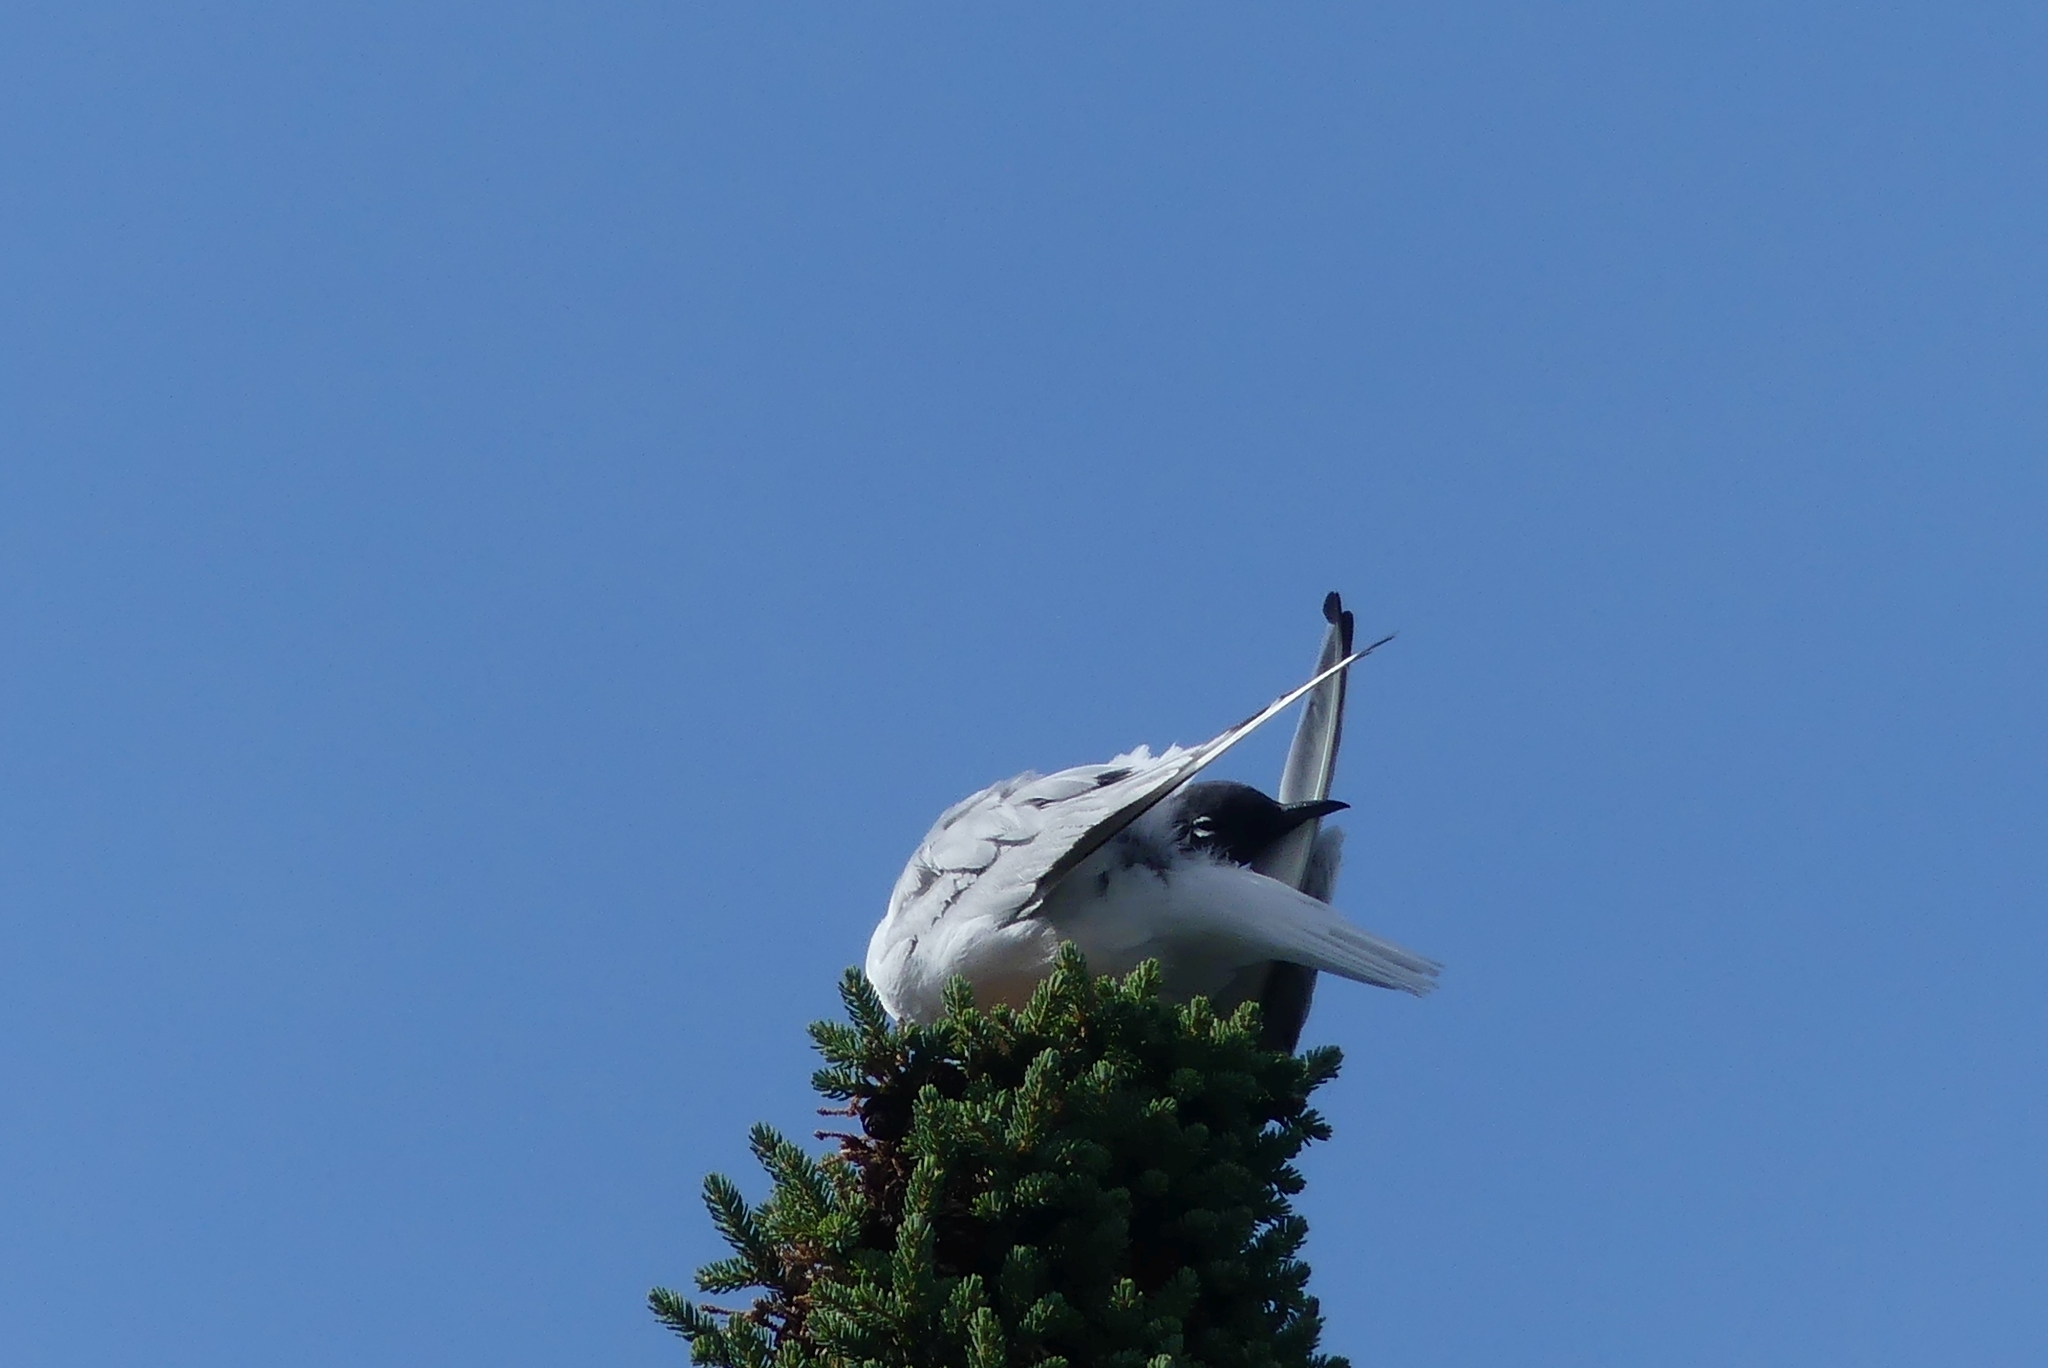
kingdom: Animalia
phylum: Chordata
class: Aves
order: Charadriiformes
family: Laridae
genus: Chroicocephalus
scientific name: Chroicocephalus philadelphia
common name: Bonaparte's gull
